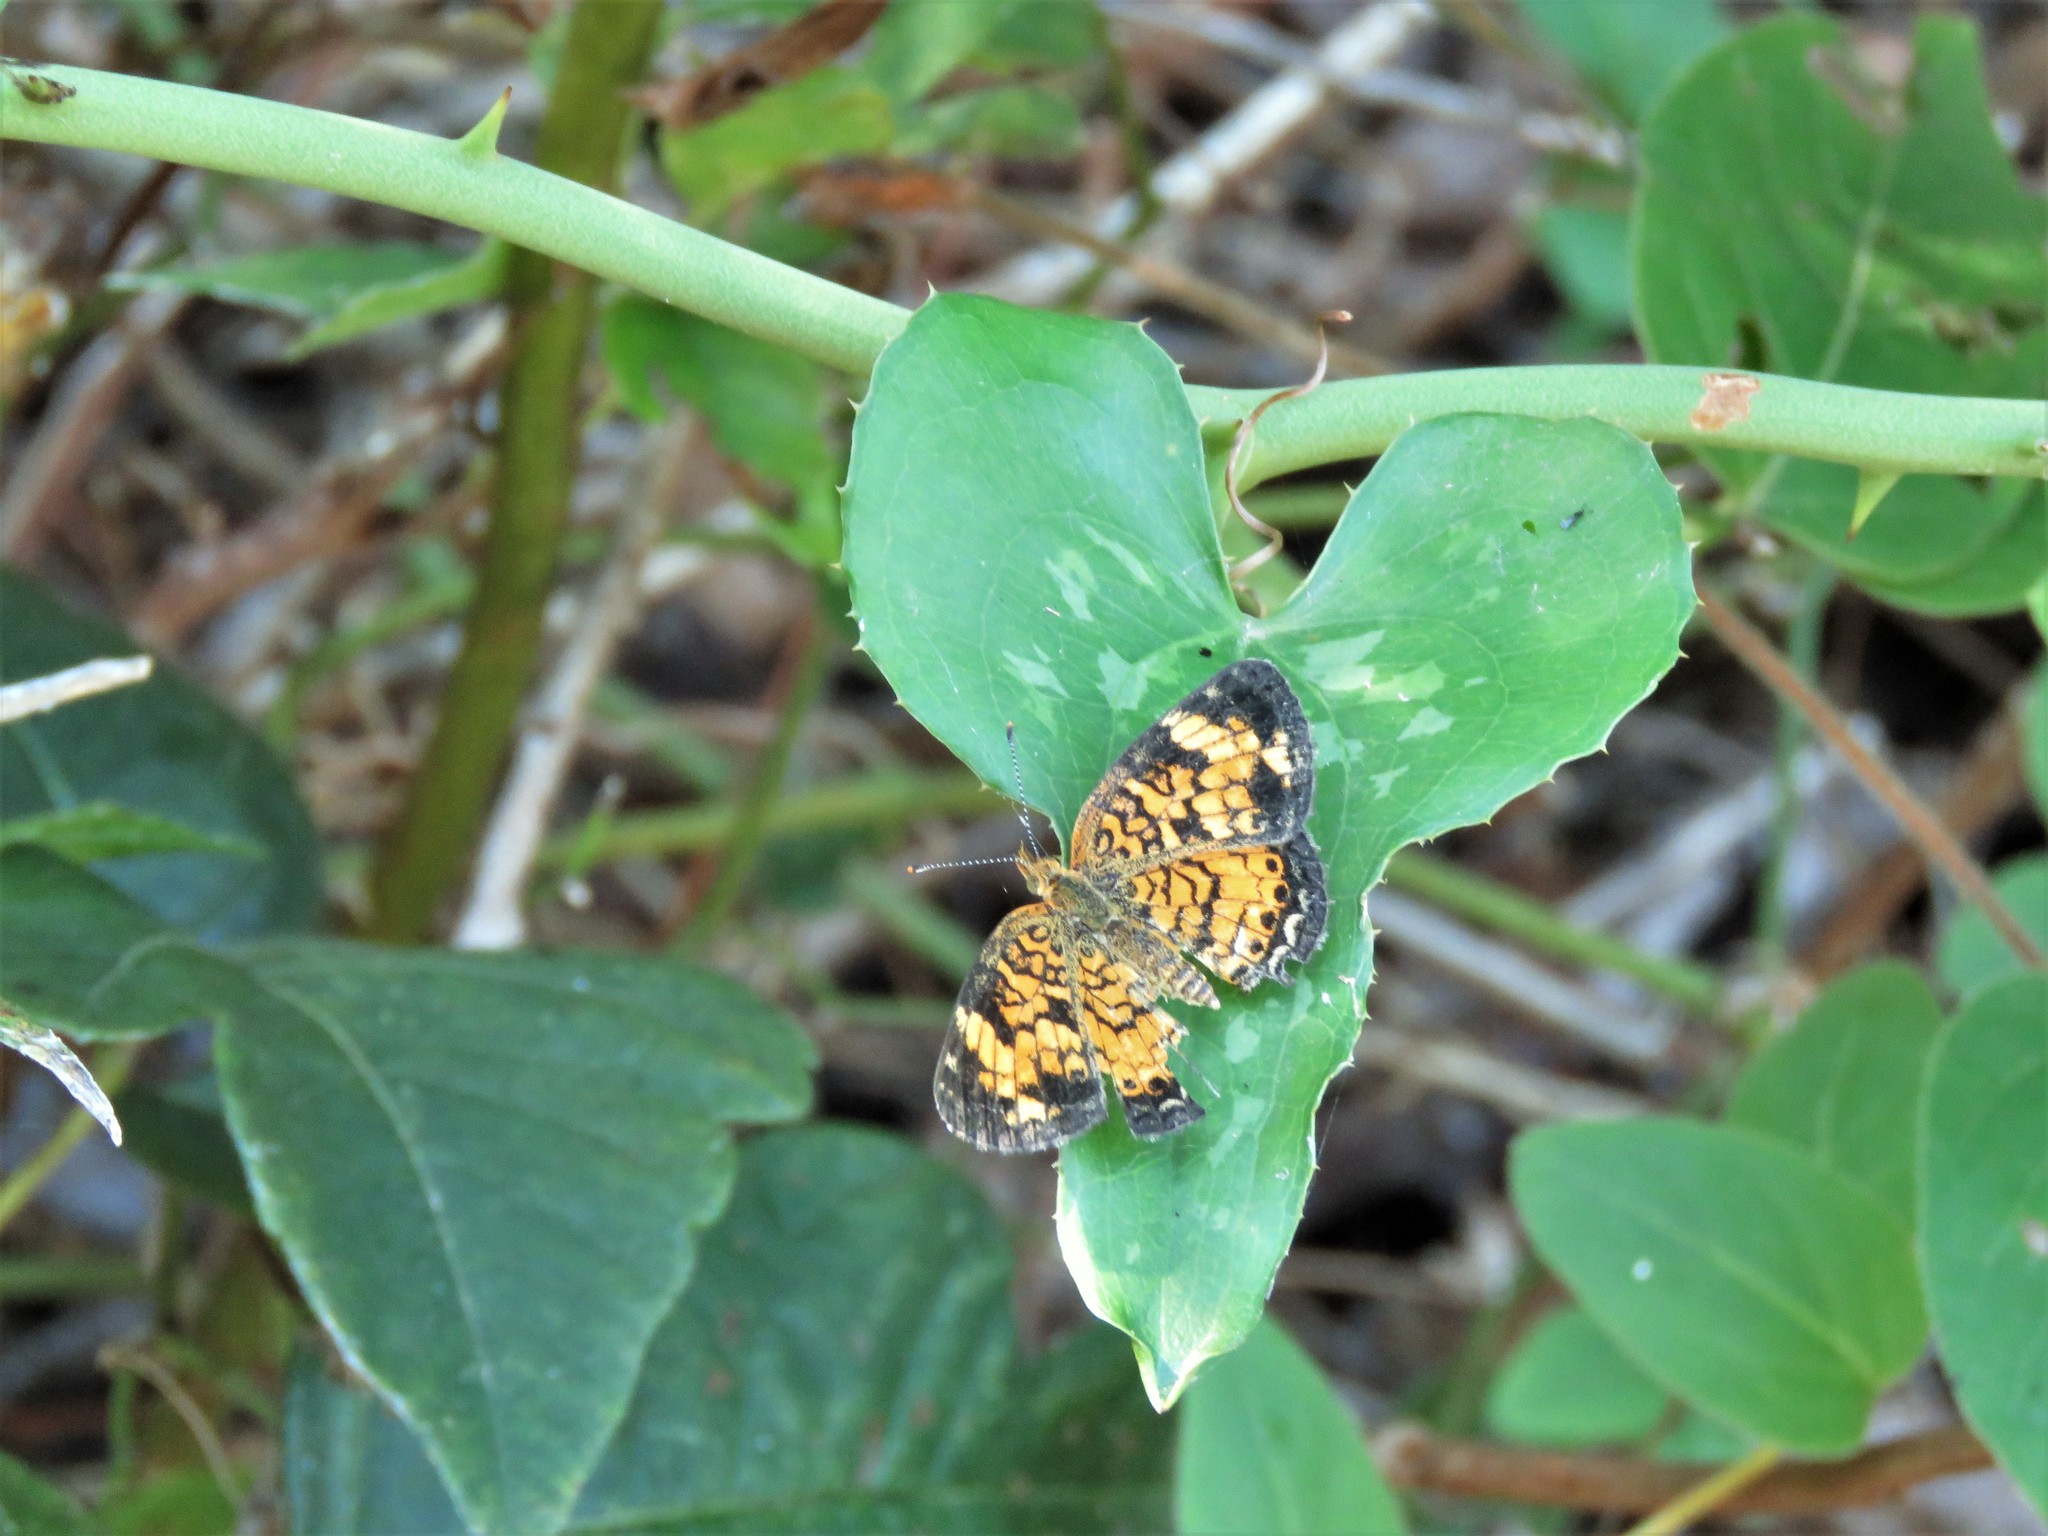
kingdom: Plantae
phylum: Tracheophyta
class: Liliopsida
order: Liliales
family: Smilacaceae
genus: Smilax
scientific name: Smilax bona-nox
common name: Catbrier
